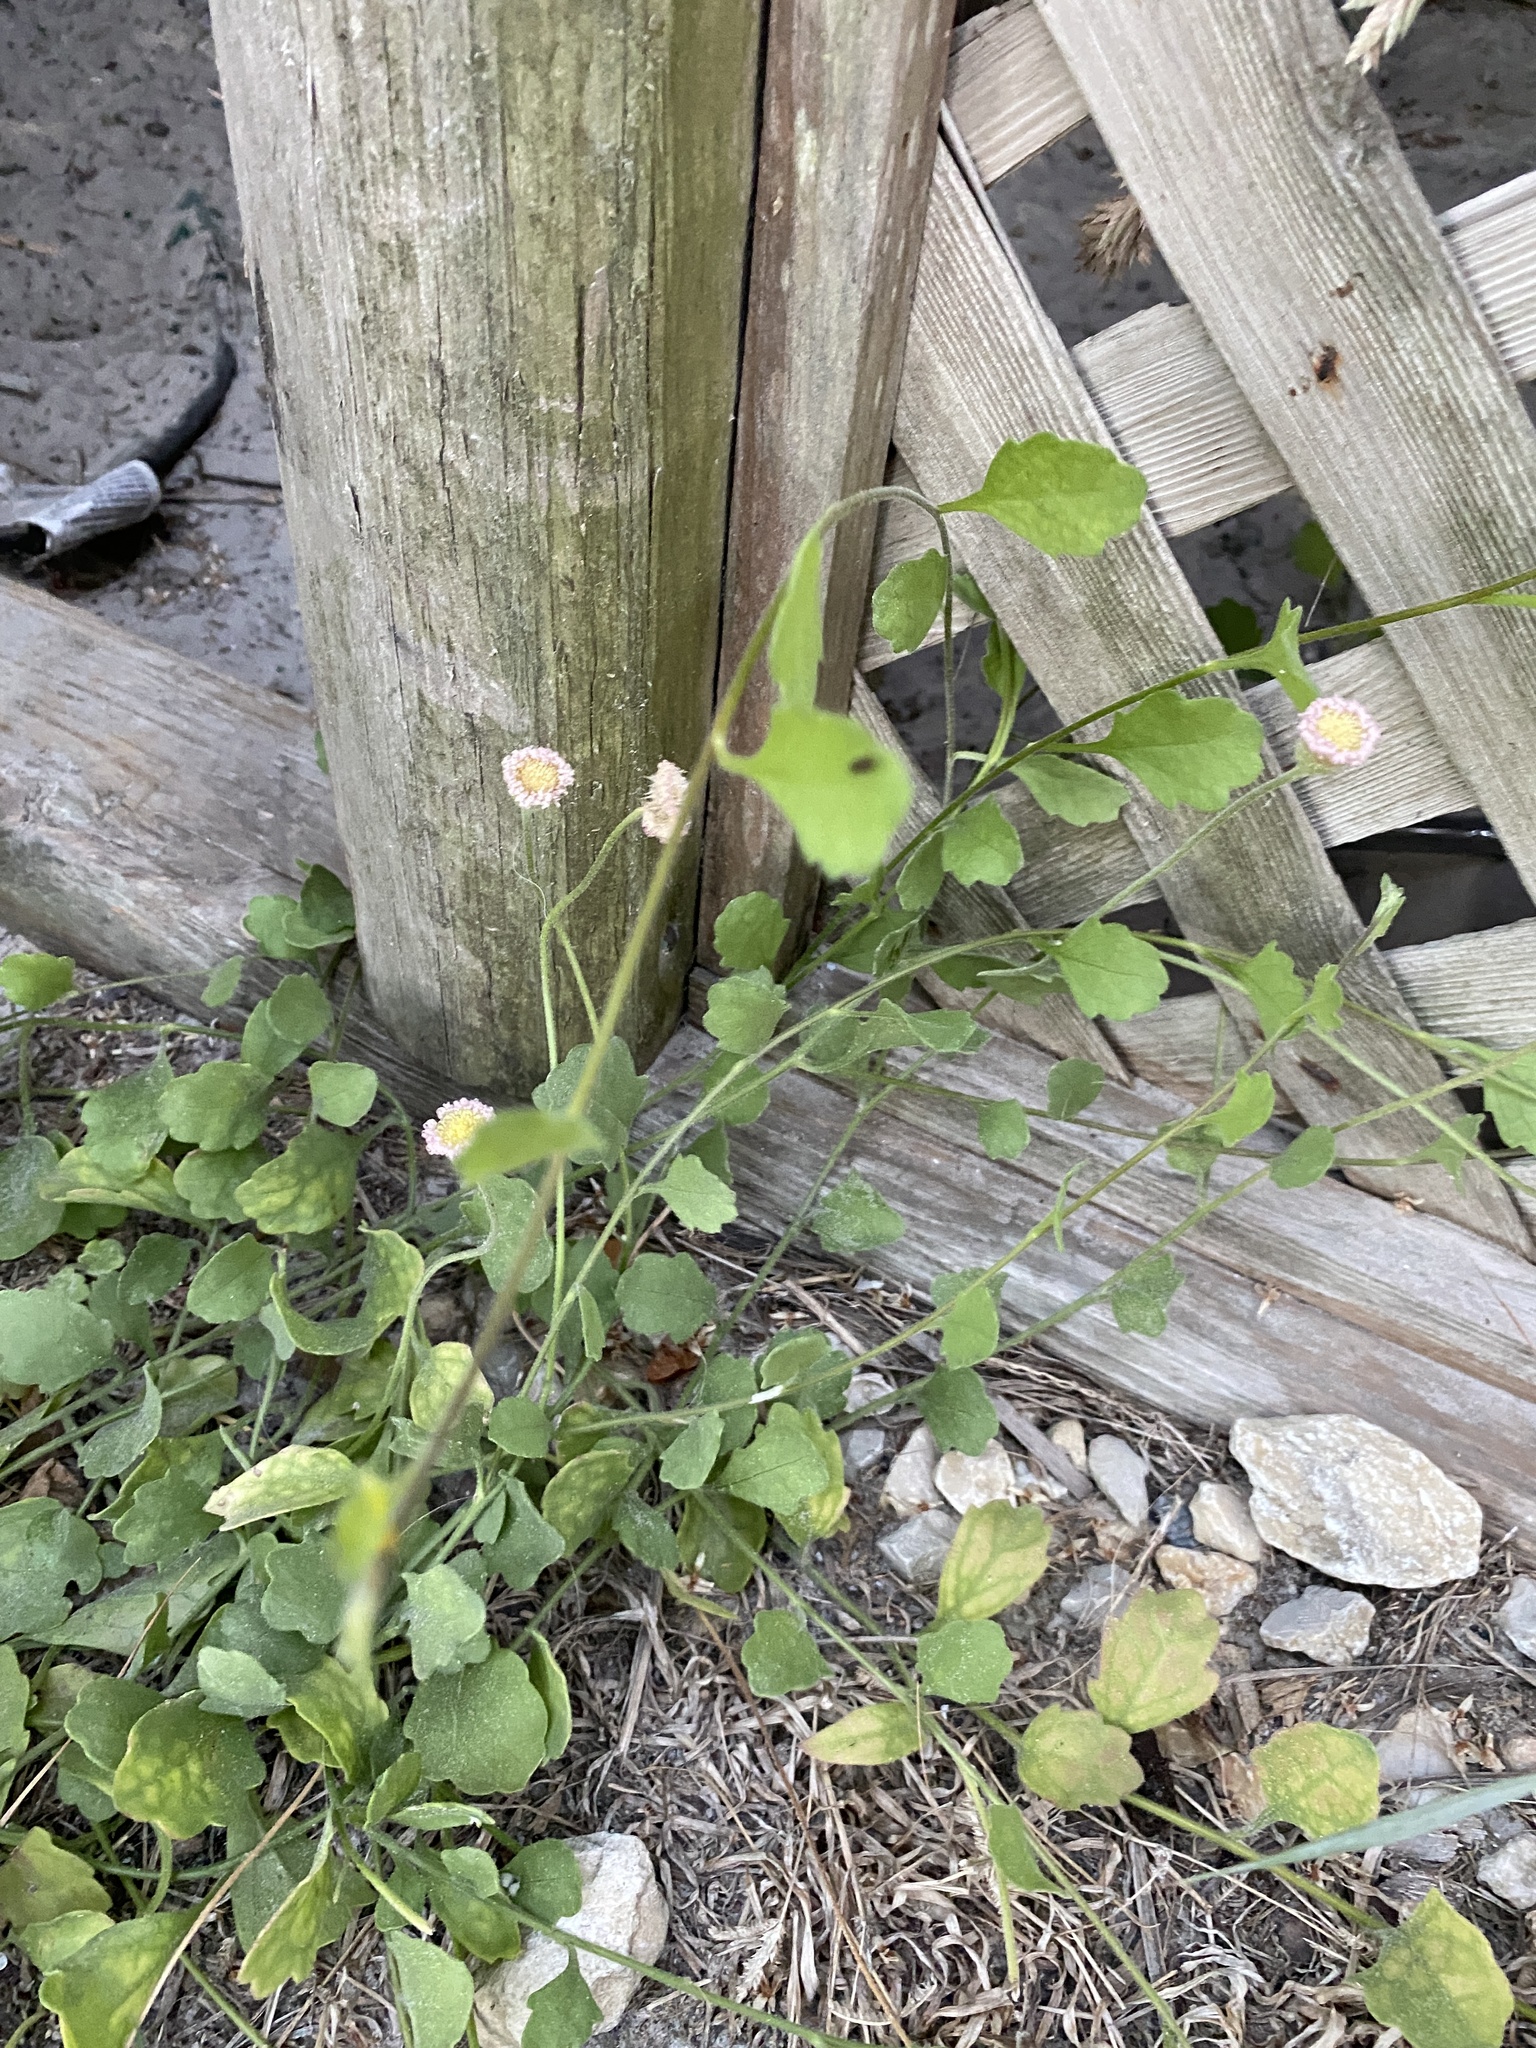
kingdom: Plantae
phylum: Tracheophyta
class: Magnoliopsida
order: Asterales
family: Asteraceae
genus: Erigeron
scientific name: Erigeron procumbens
